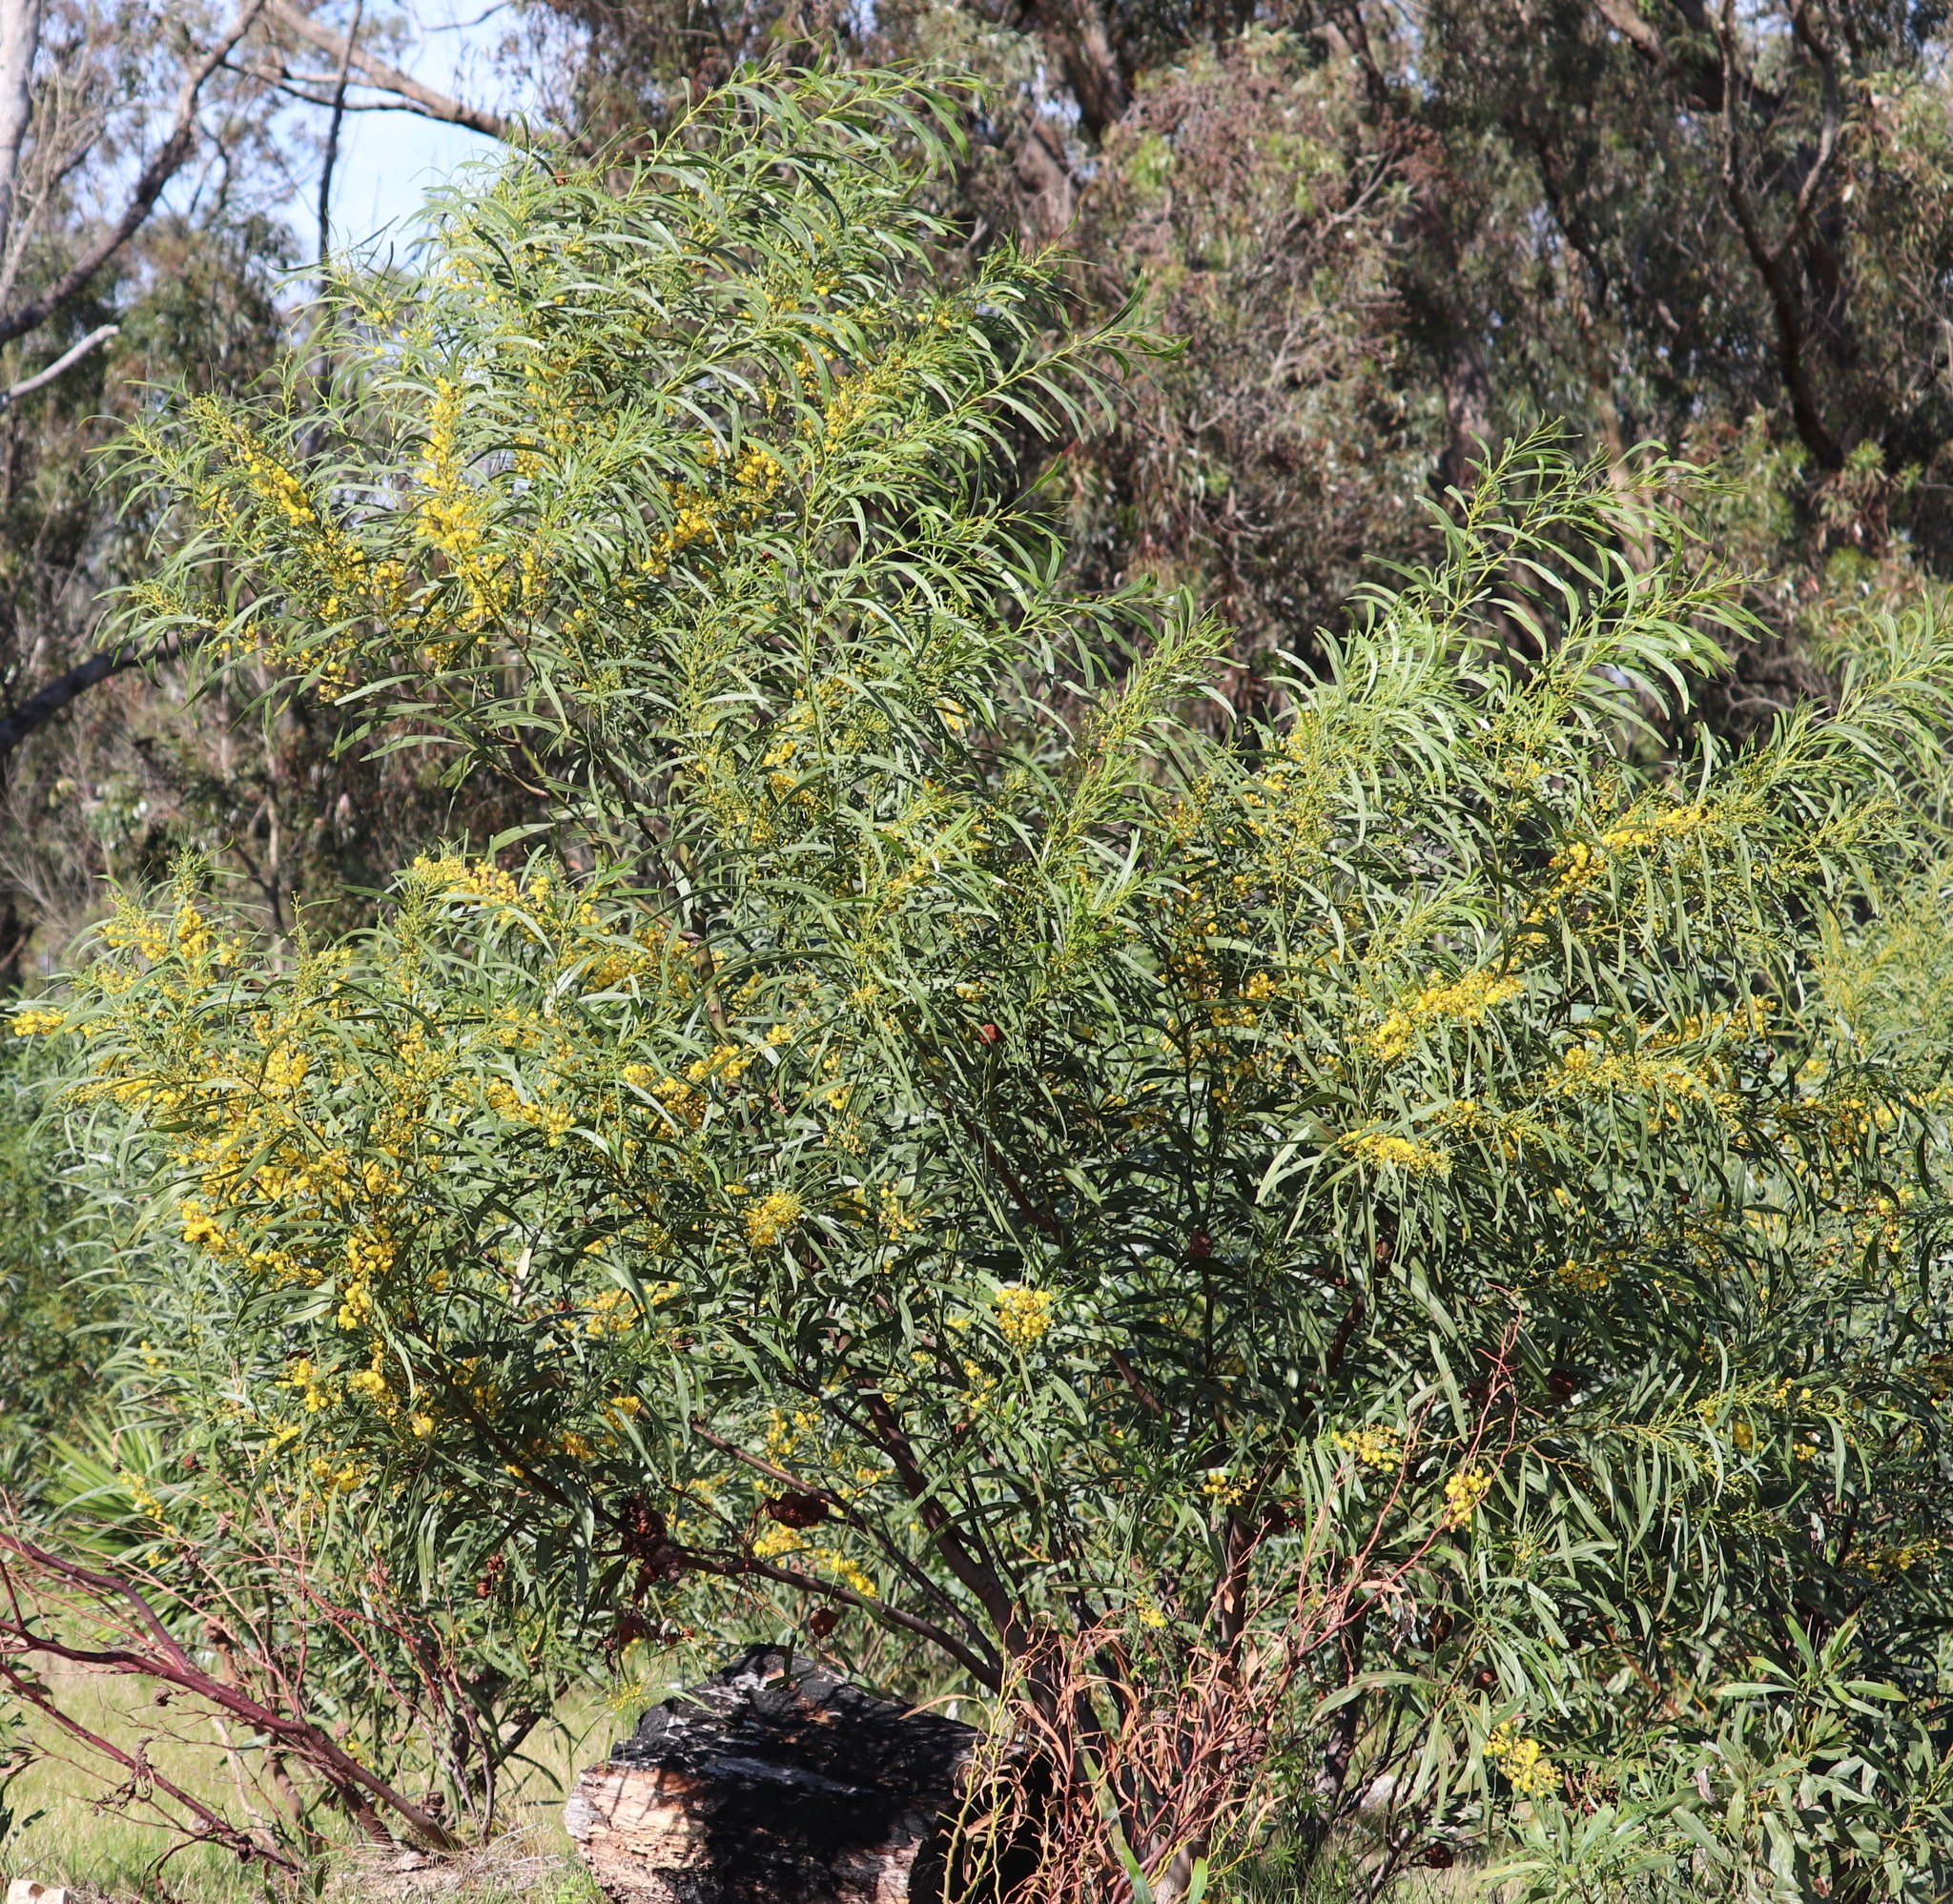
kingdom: Plantae
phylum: Tracheophyta
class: Magnoliopsida
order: Fabales
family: Fabaceae
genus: Acacia
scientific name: Acacia saligna
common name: Orange wattle
